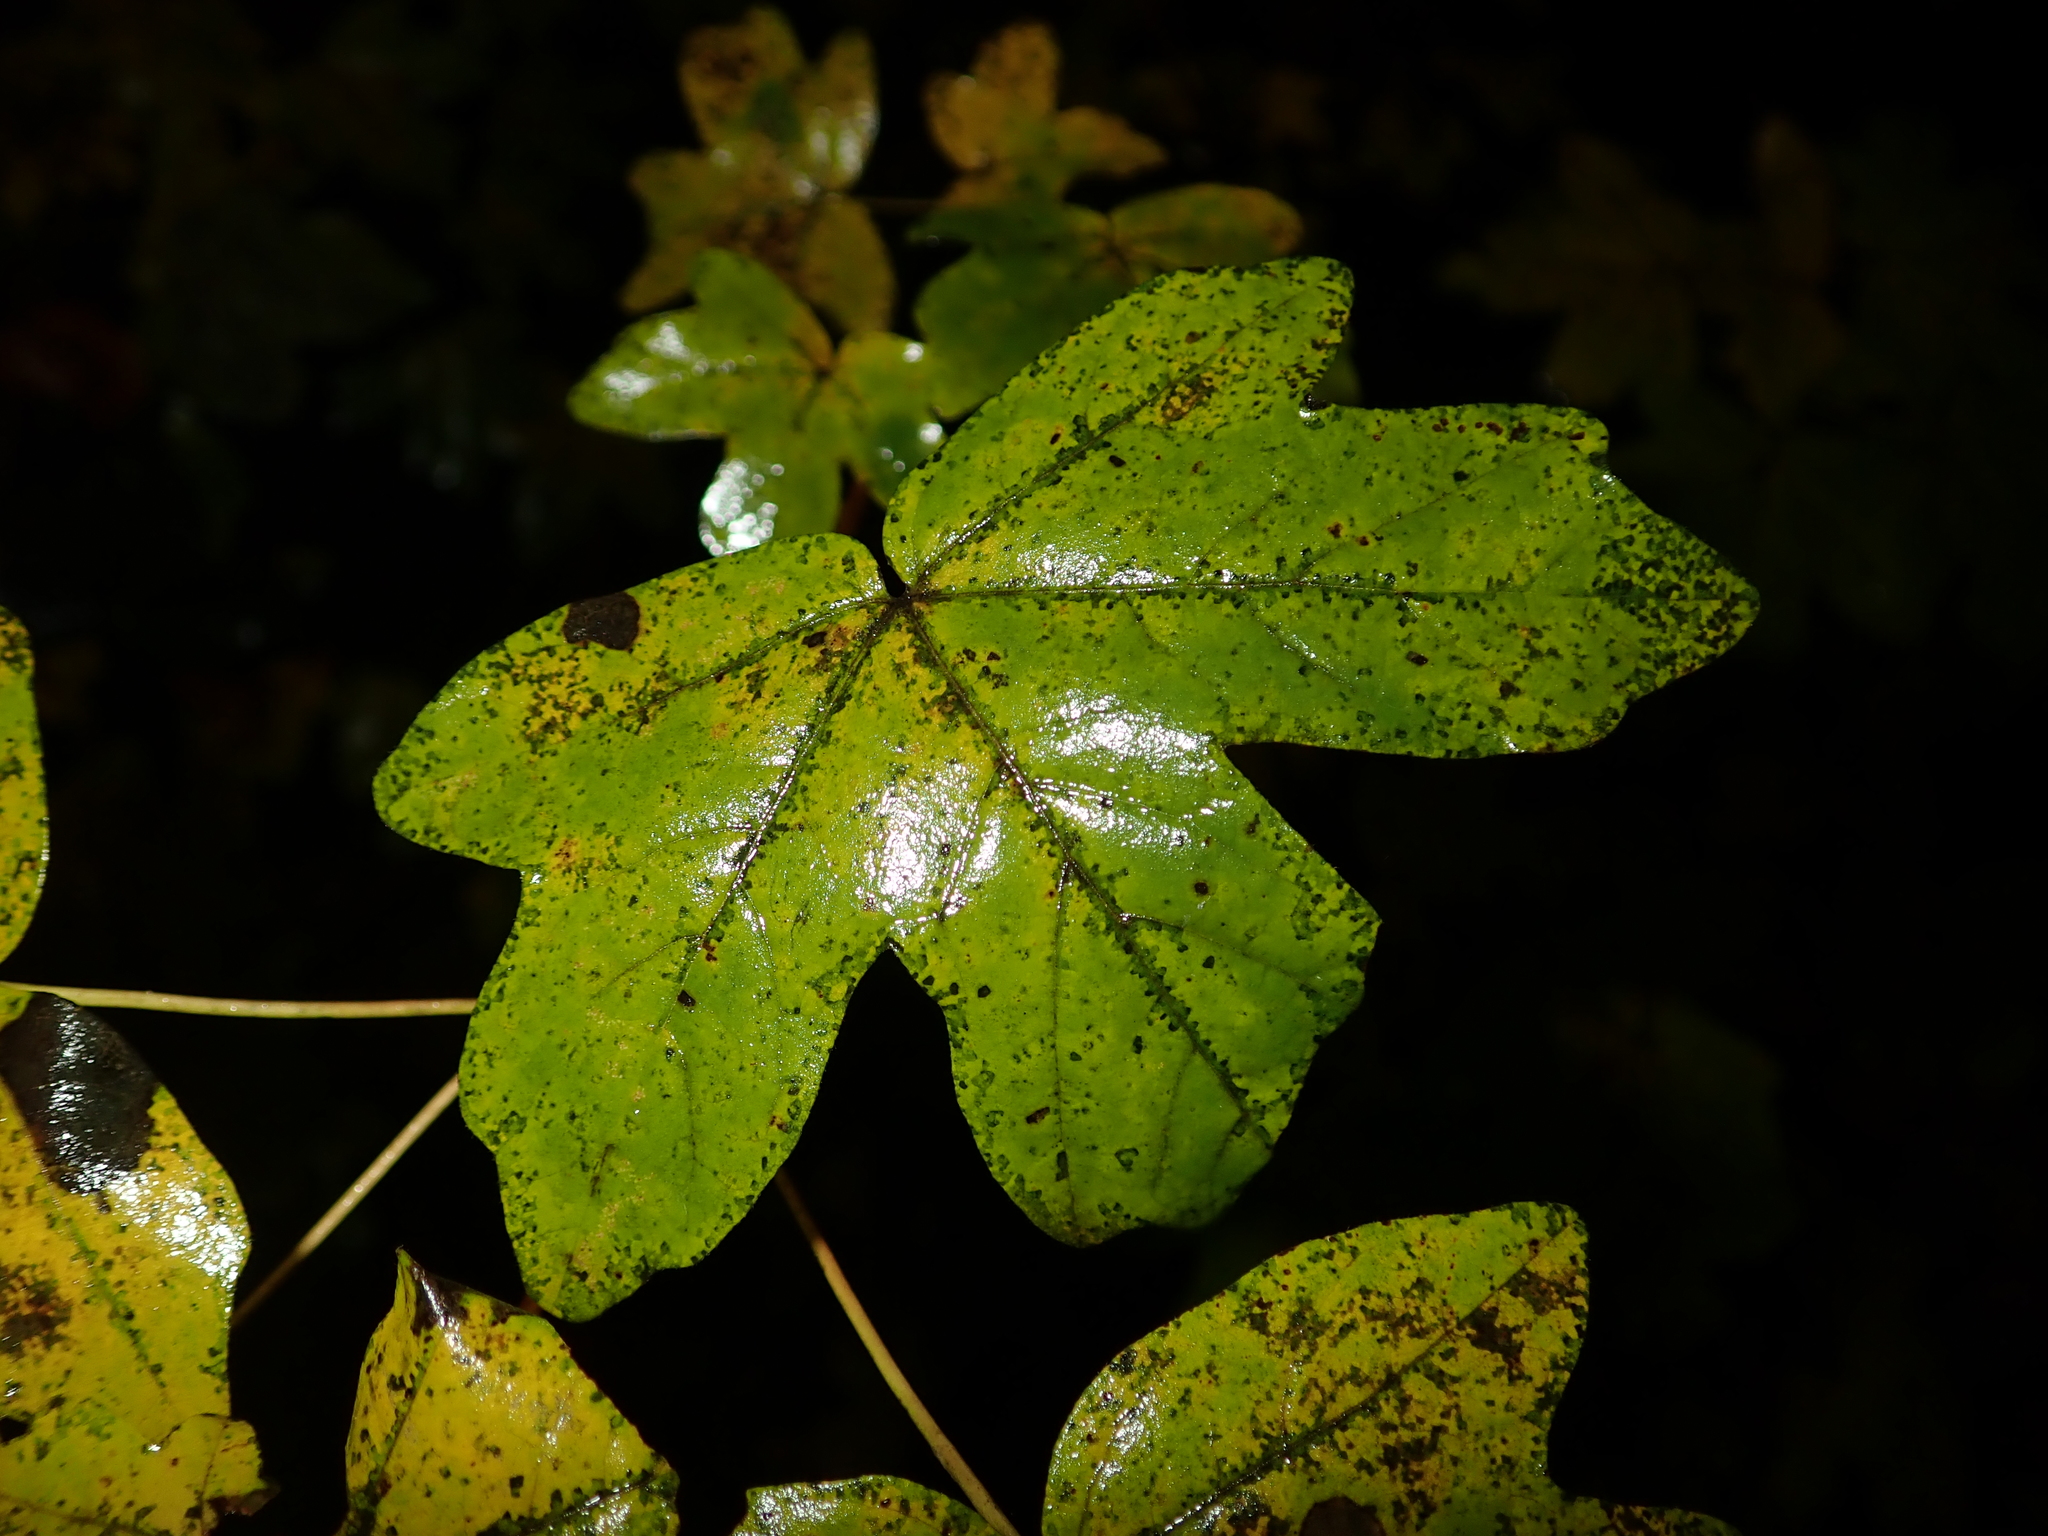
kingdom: Plantae
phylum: Tracheophyta
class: Magnoliopsida
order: Sapindales
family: Sapindaceae
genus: Acer
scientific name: Acer campestre
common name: Field maple
